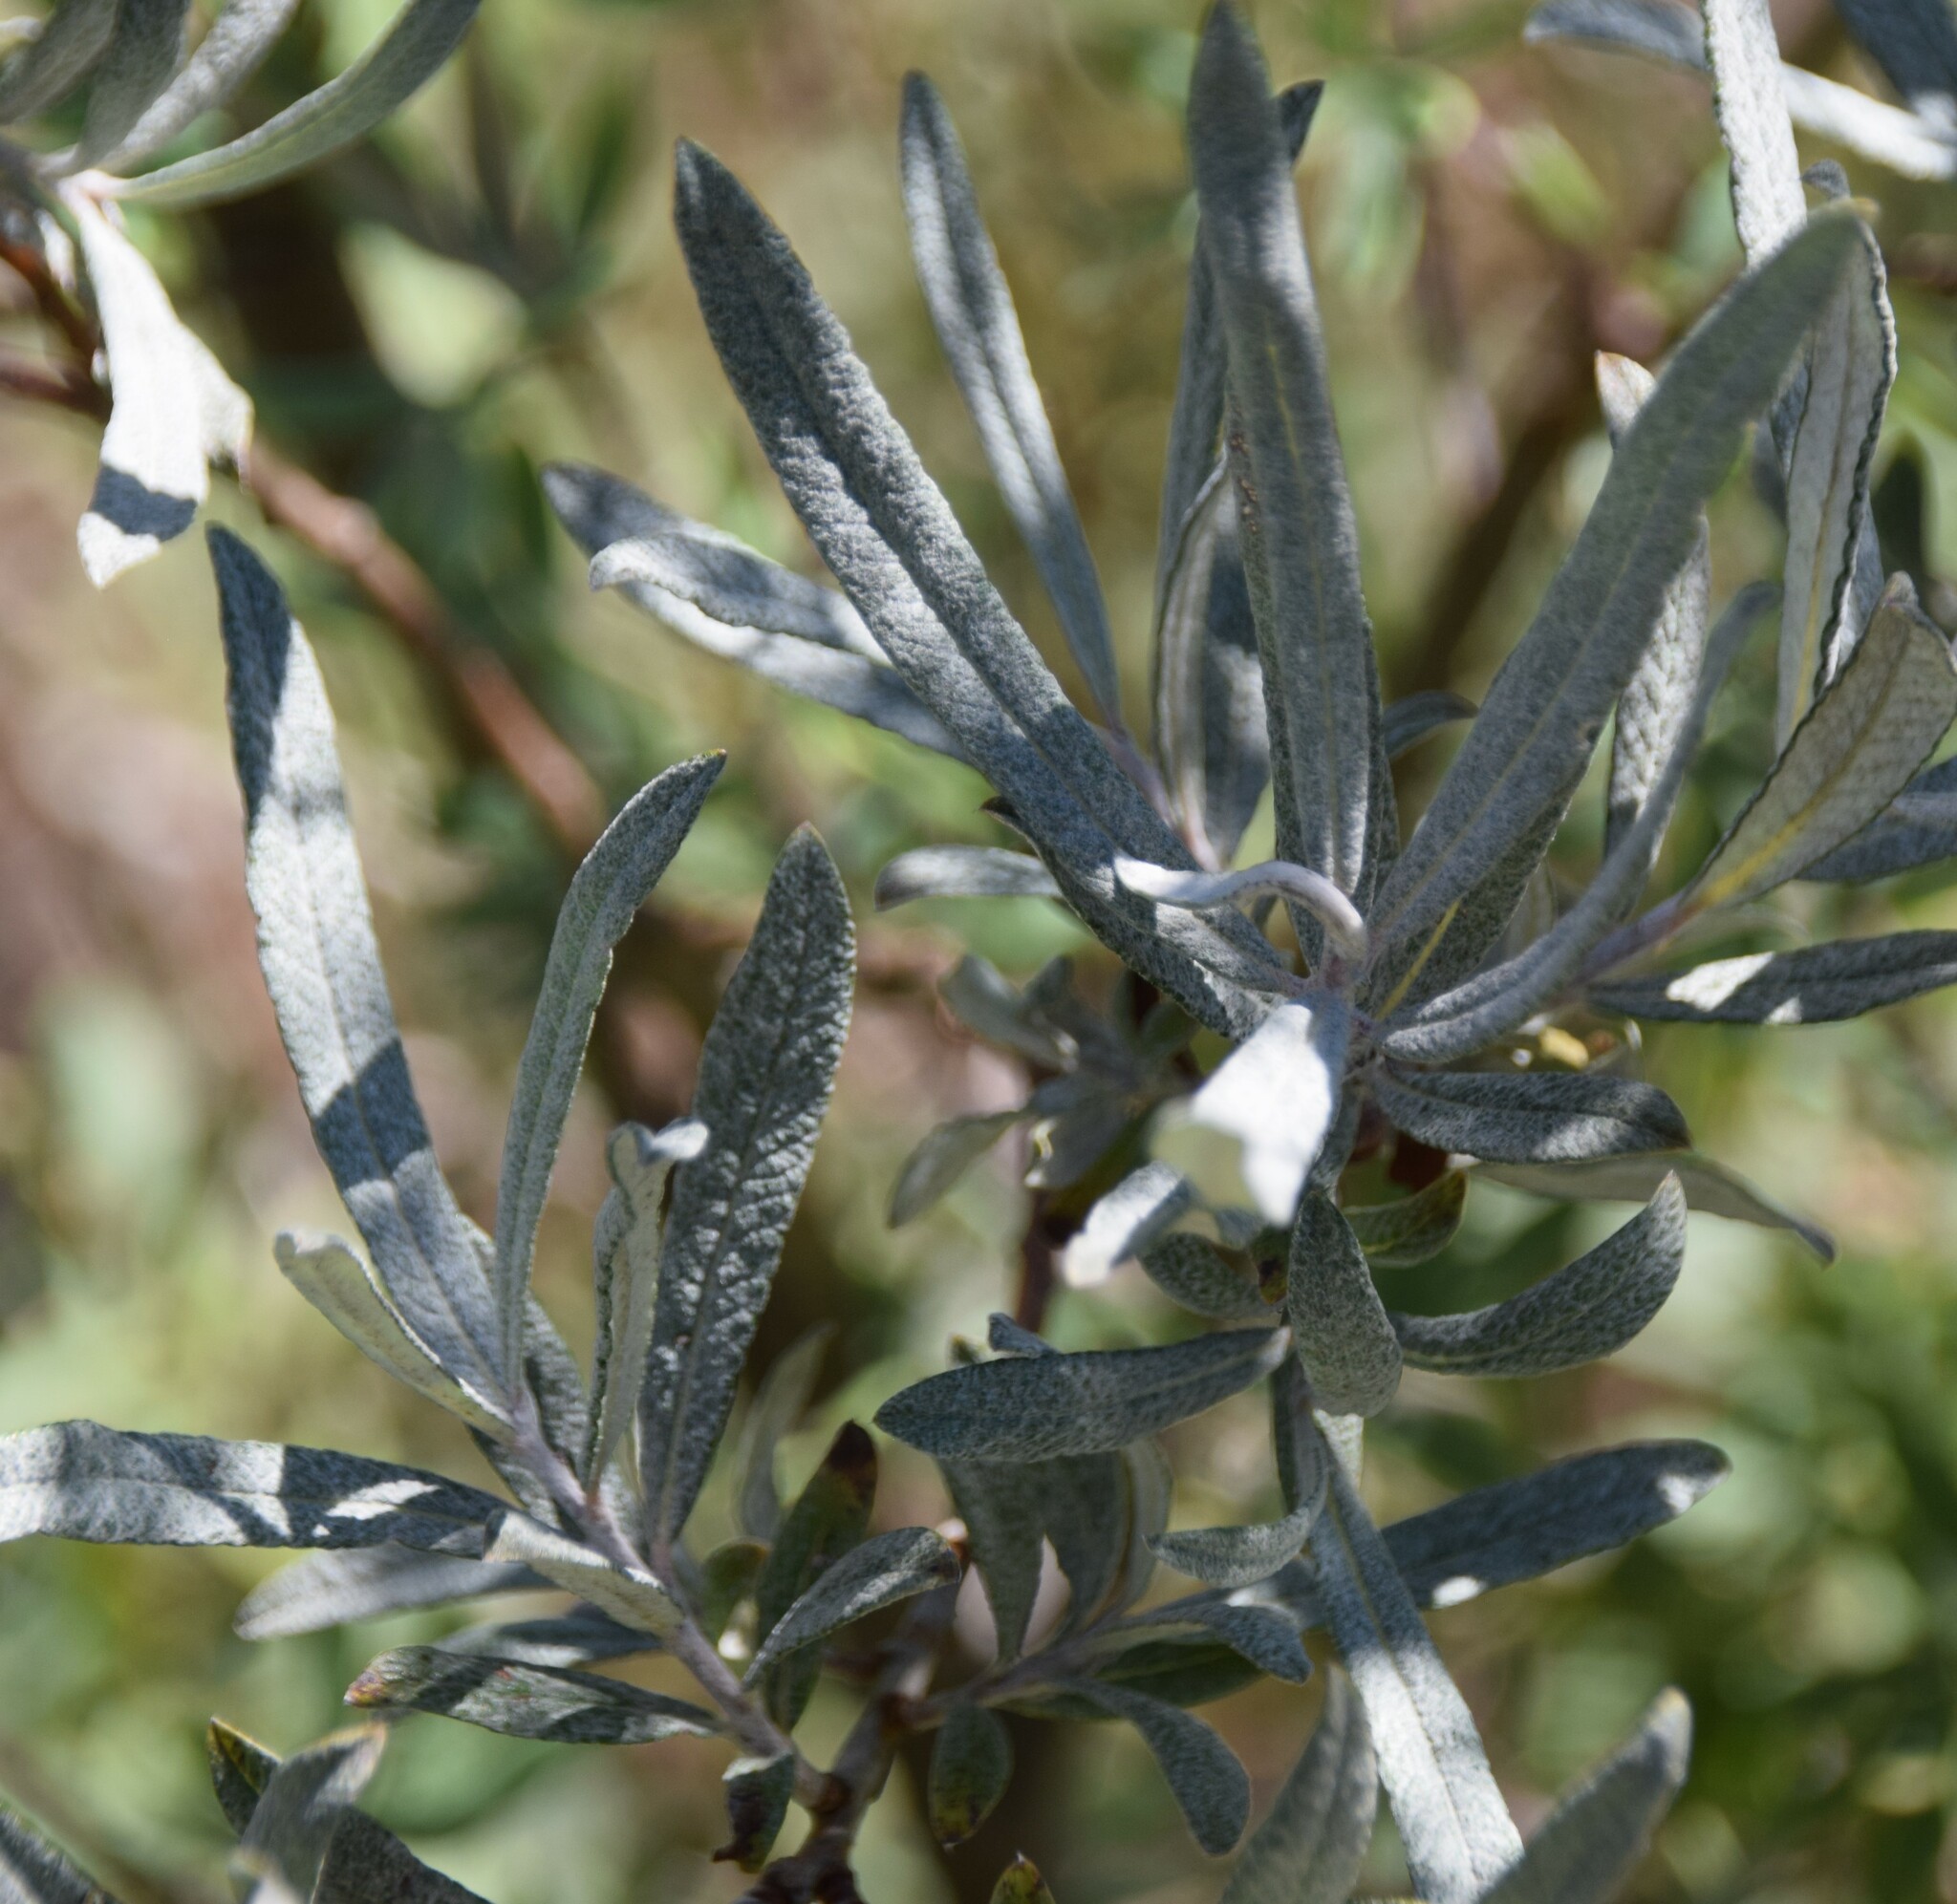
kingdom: Plantae
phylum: Tracheophyta
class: Magnoliopsida
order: Malpighiales
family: Salicaceae
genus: Salix
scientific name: Salix candida
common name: Hoary willow
